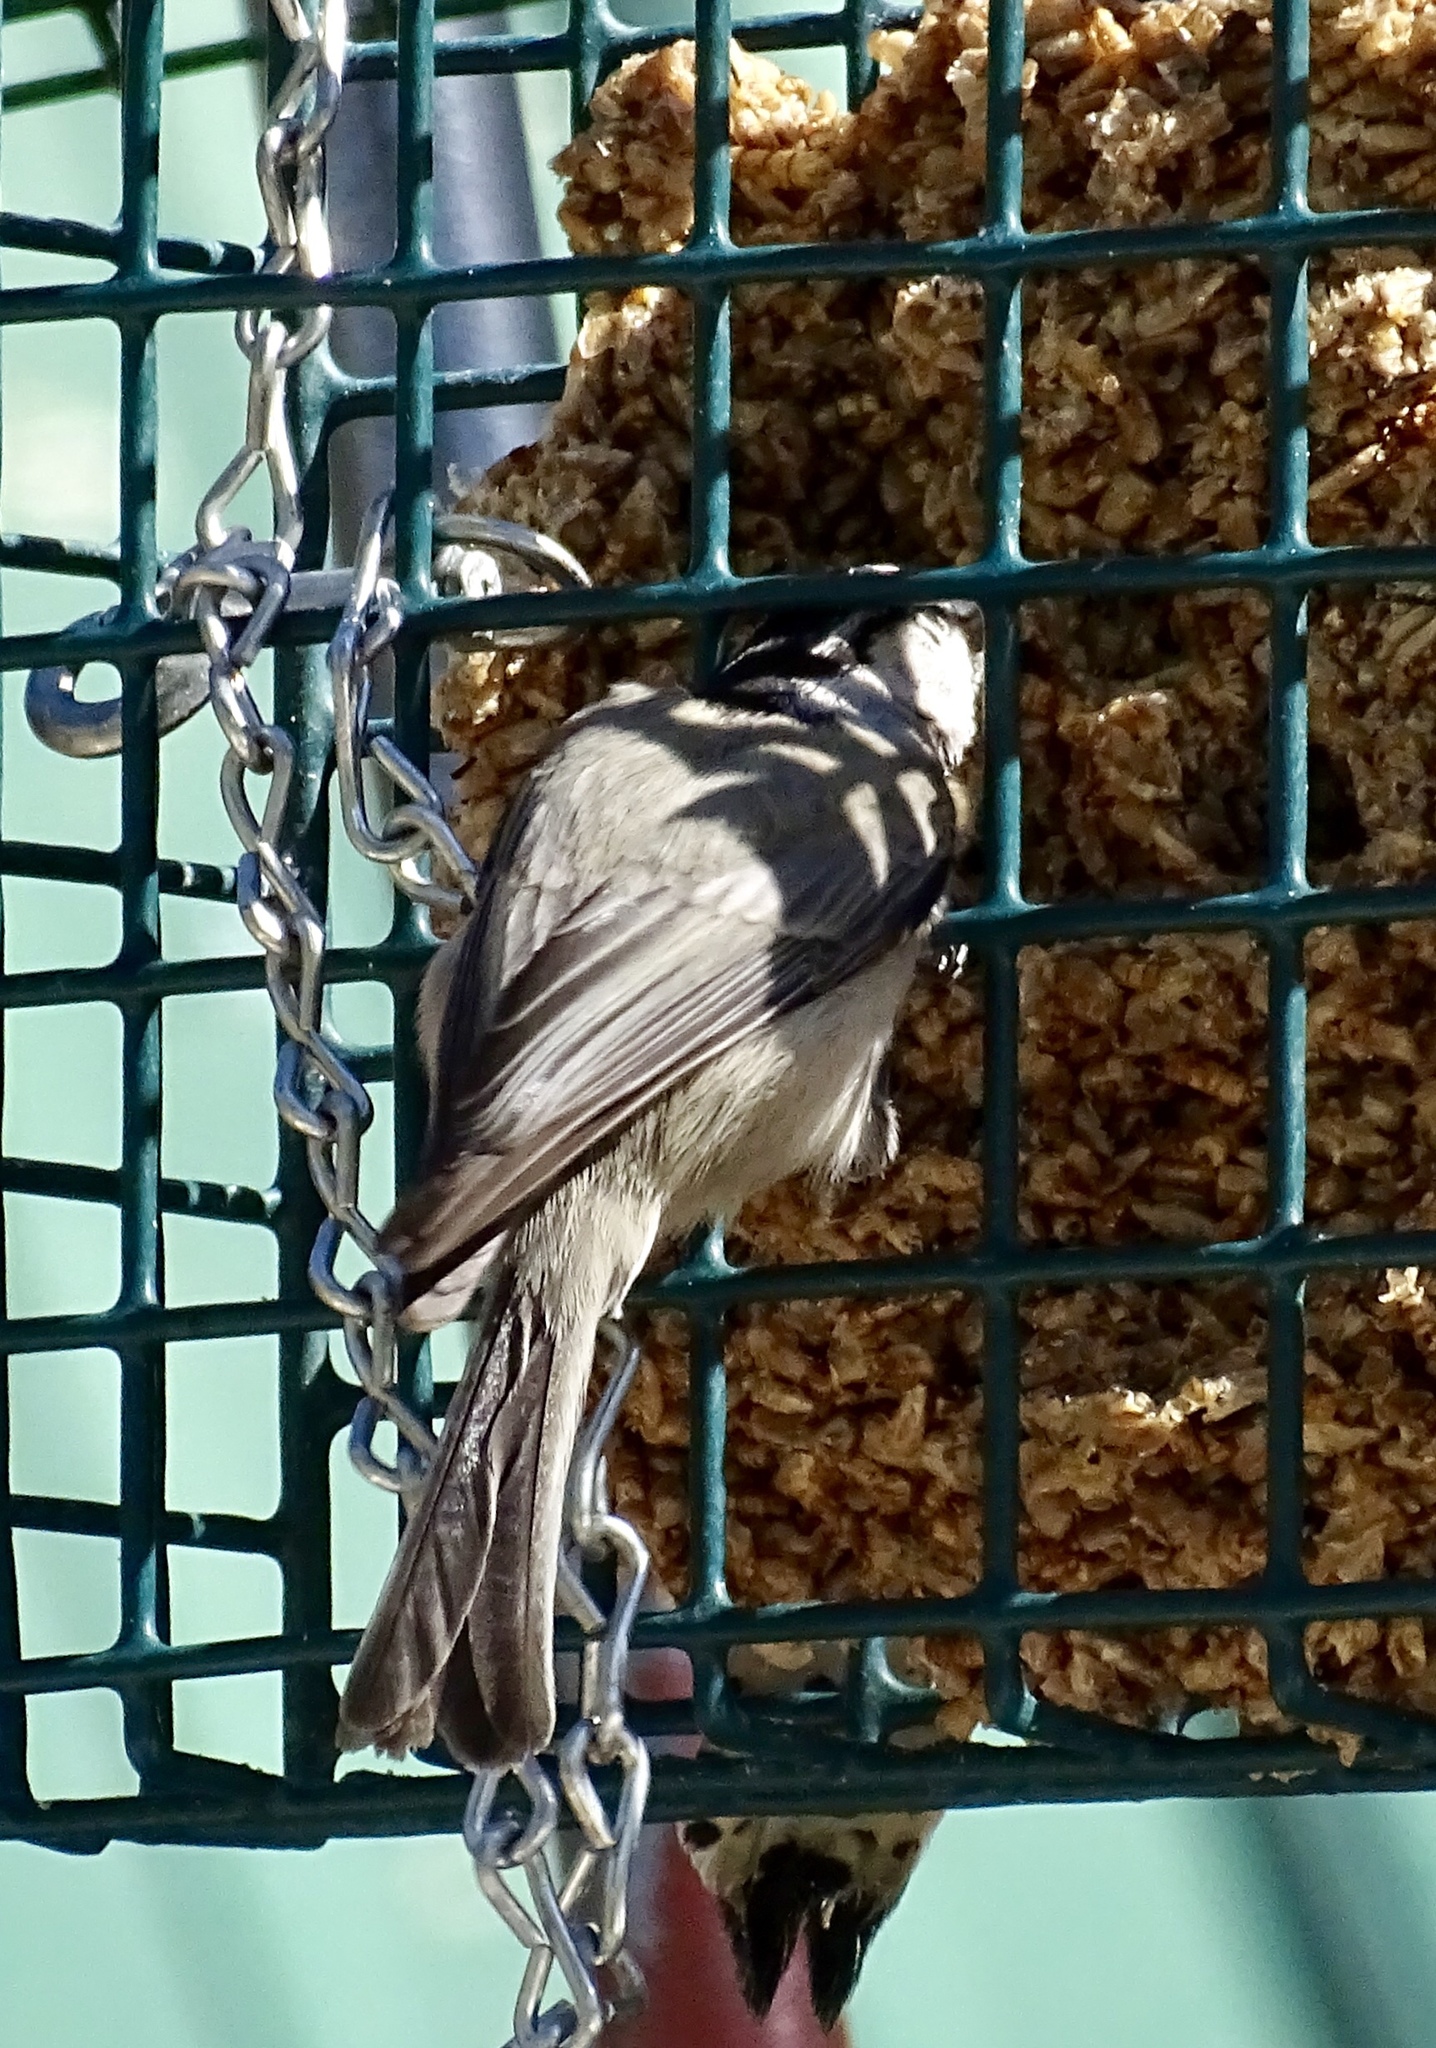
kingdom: Animalia
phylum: Chordata
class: Aves
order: Passeriformes
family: Paridae
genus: Poecile
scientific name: Poecile gambeli
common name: Mountain chickadee
